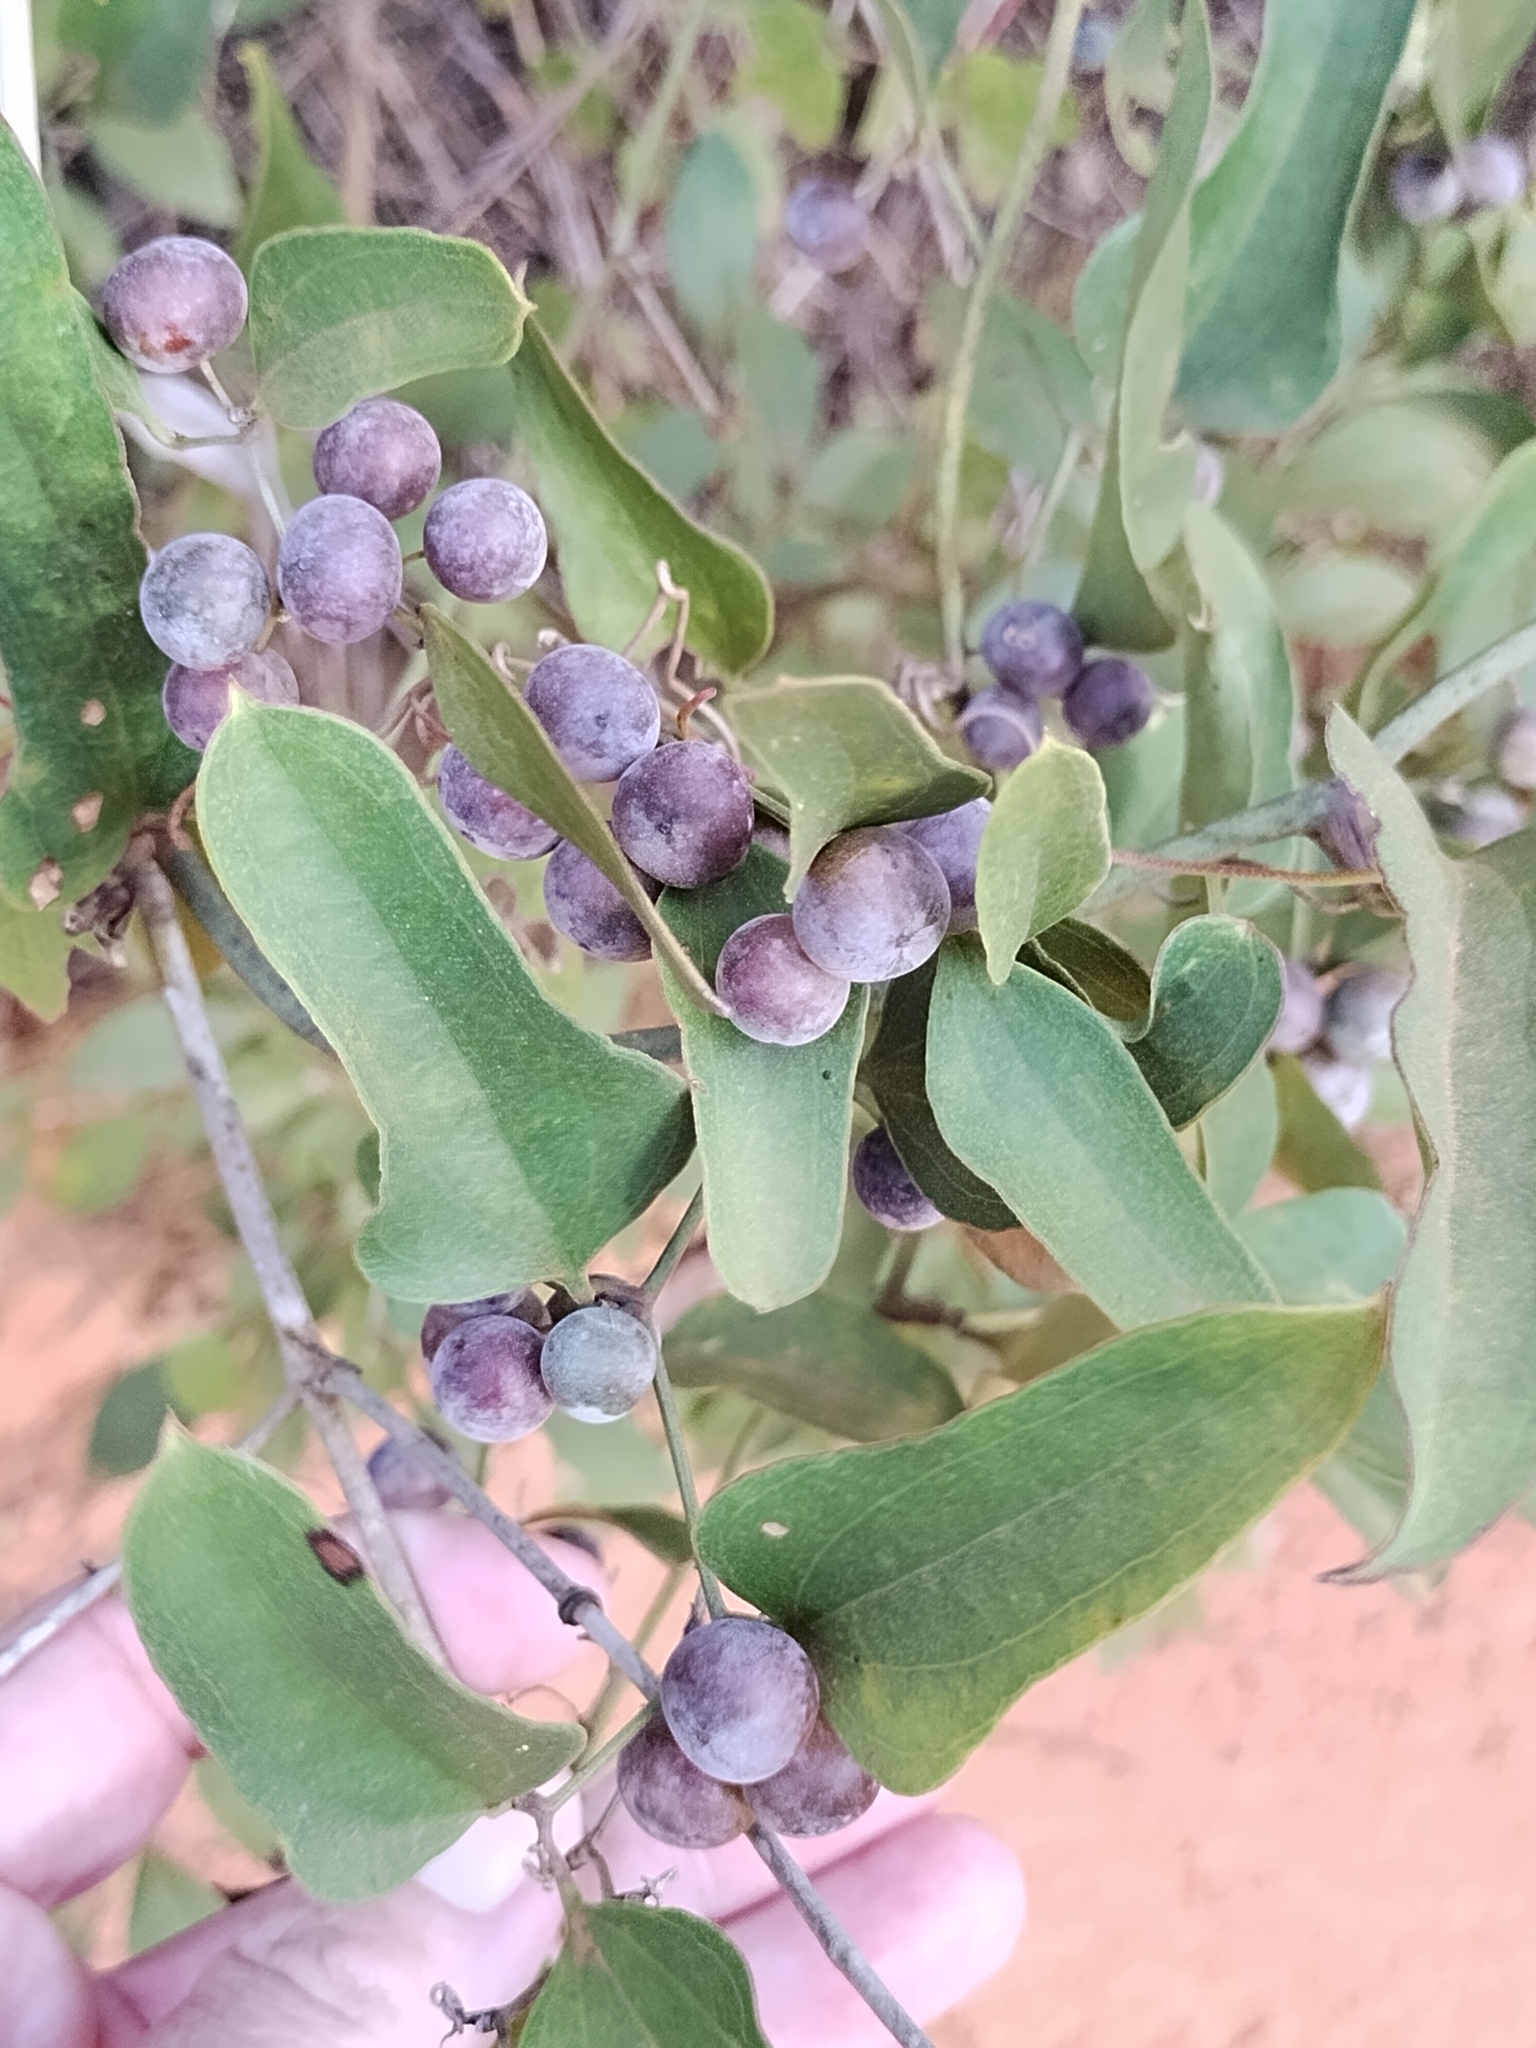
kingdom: Plantae
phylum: Tracheophyta
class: Liliopsida
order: Liliales
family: Smilacaceae
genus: Smilax
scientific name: Smilax auriculata
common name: Wild bamboo
